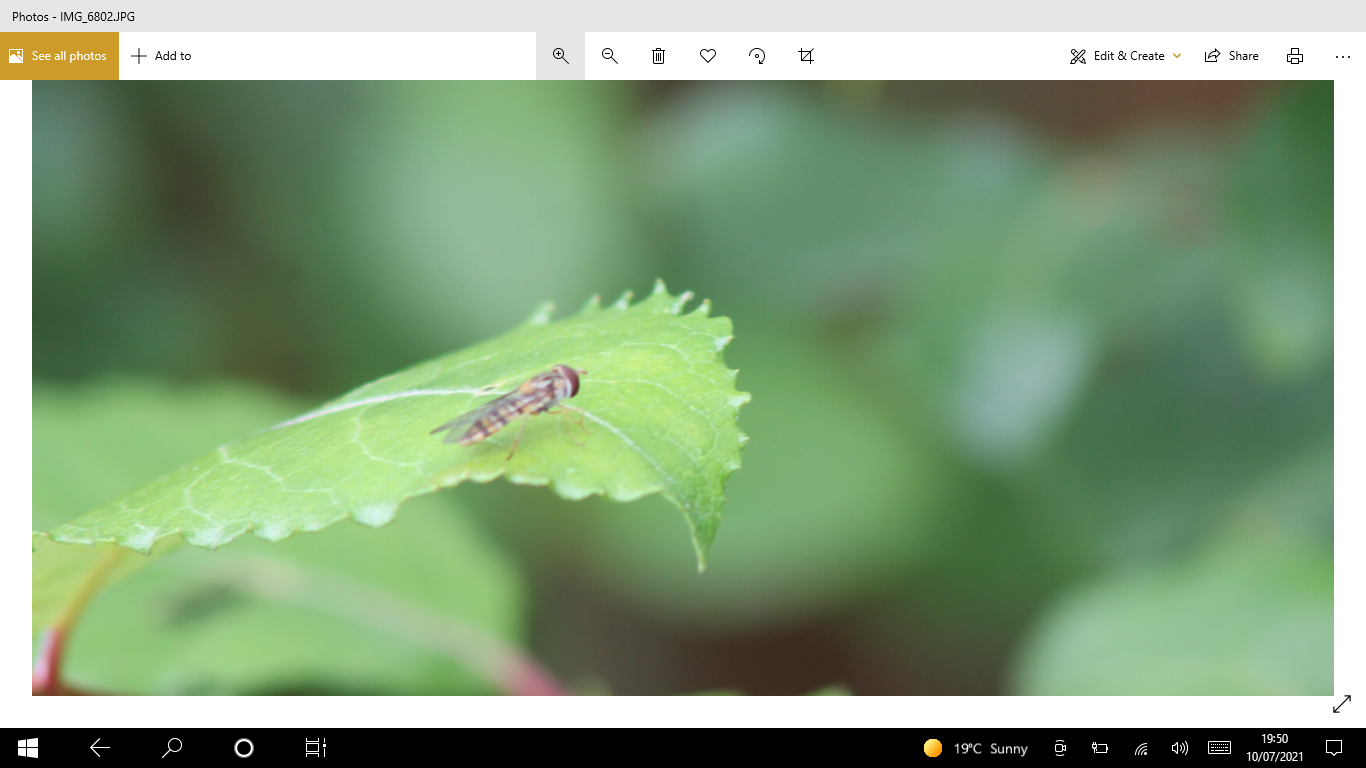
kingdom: Animalia
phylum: Arthropoda
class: Insecta
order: Diptera
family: Syrphidae
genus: Episyrphus
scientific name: Episyrphus balteatus
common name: Marmalade hoverfly
